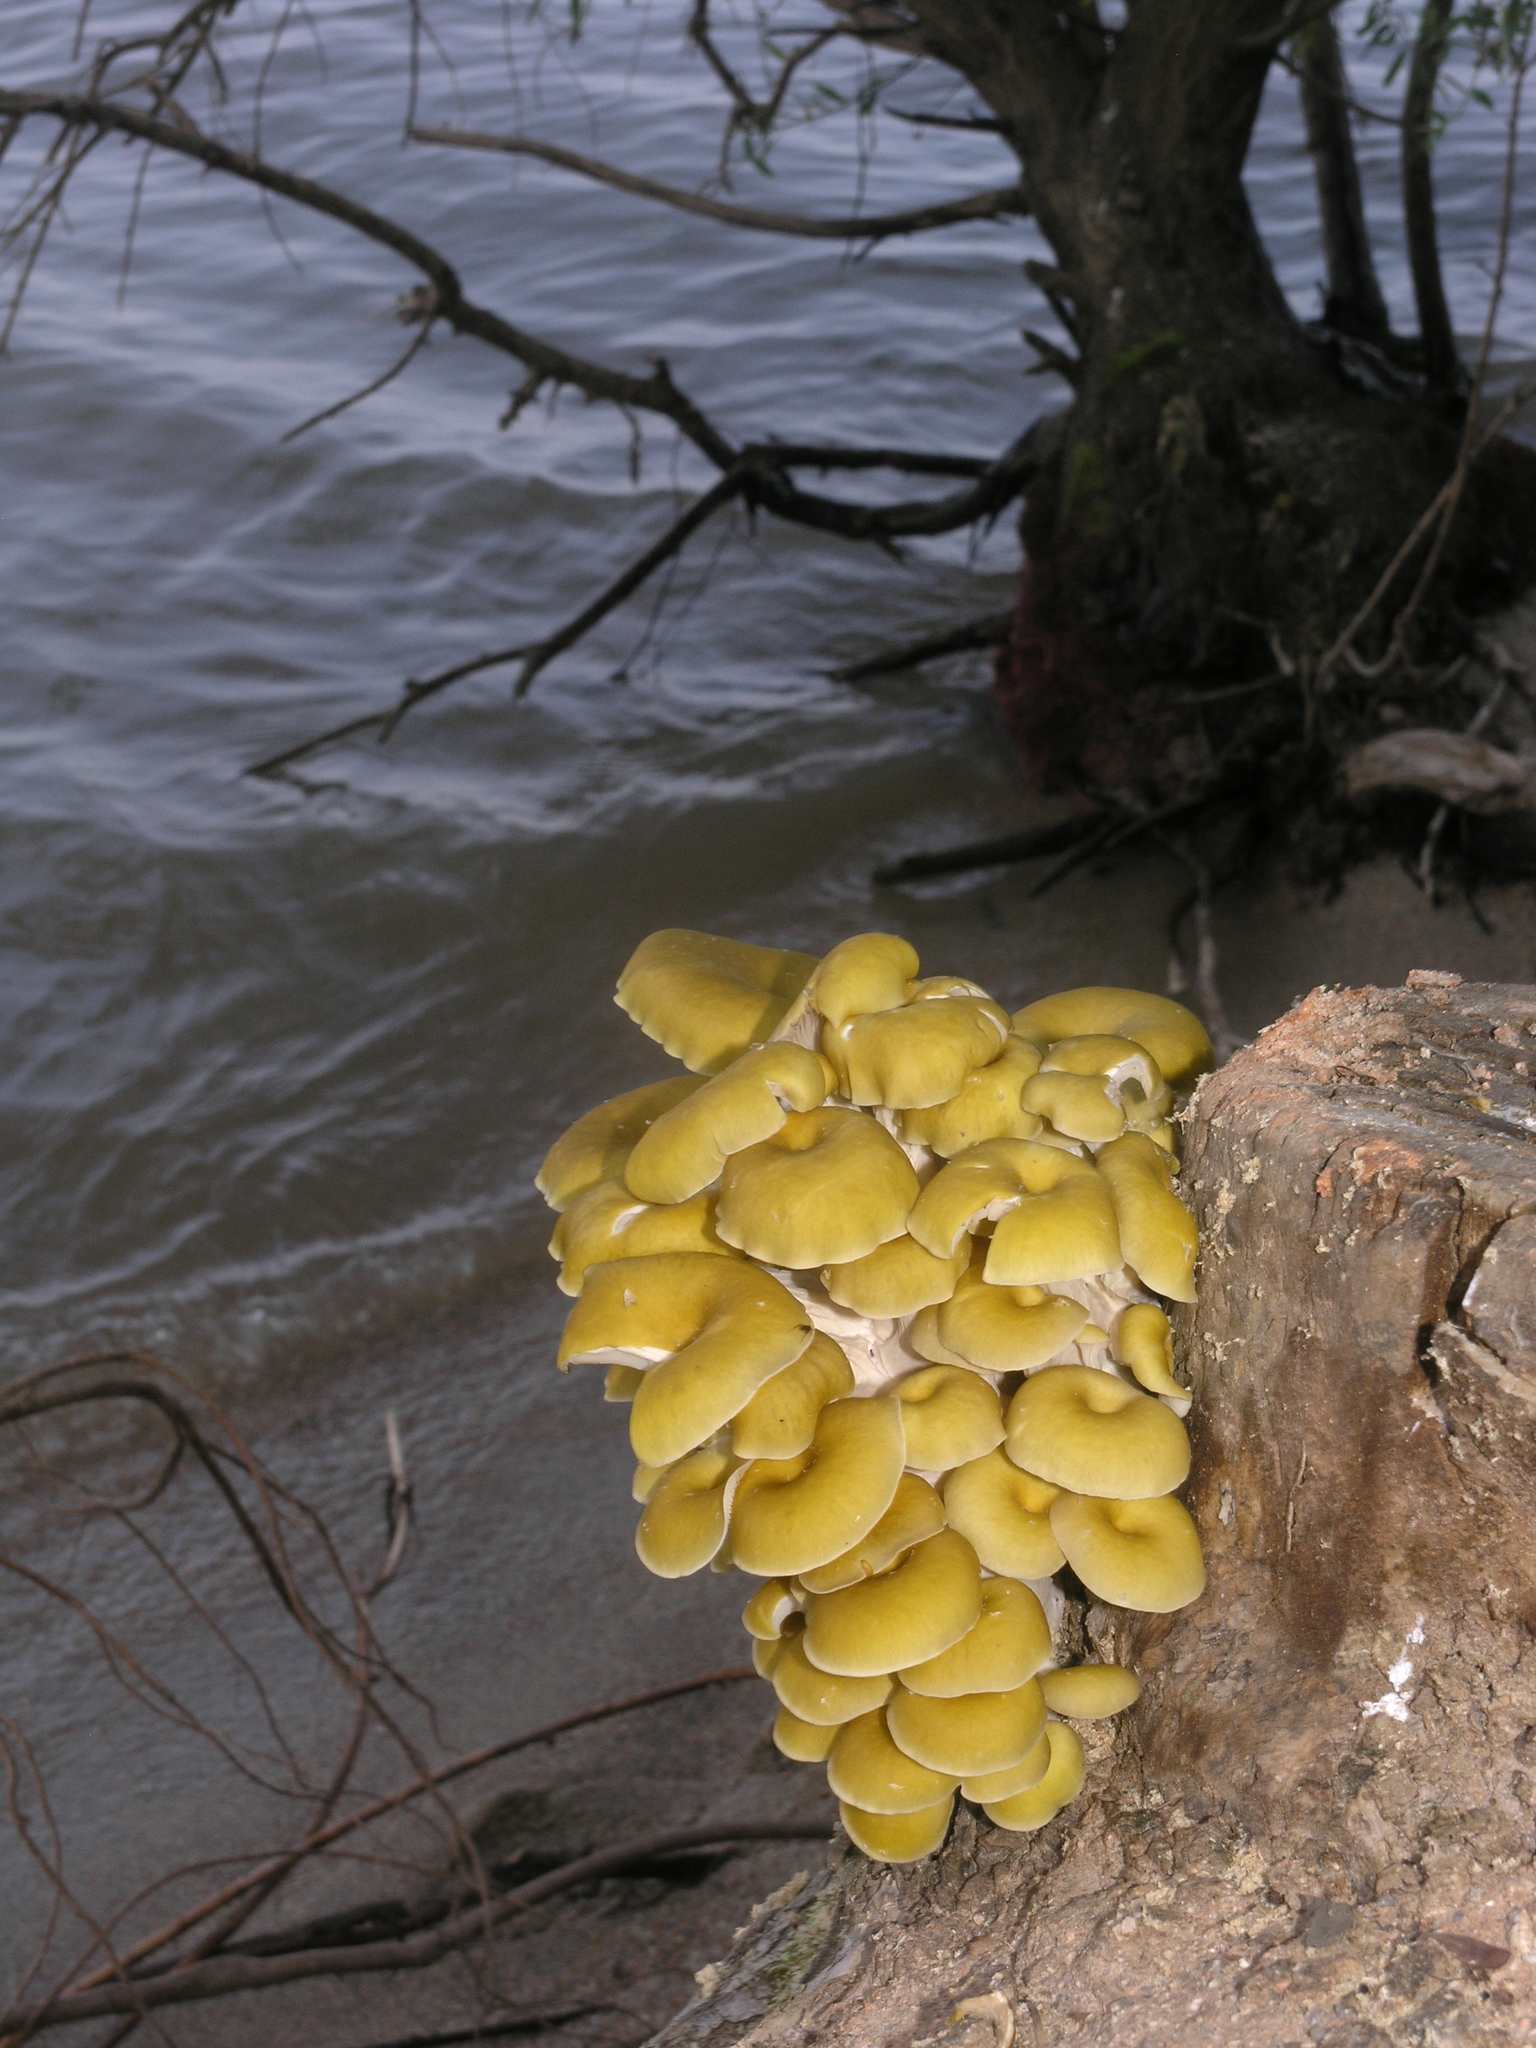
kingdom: Fungi
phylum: Basidiomycota
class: Agaricomycetes
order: Agaricales
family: Pleurotaceae
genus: Pleurotus
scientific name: Pleurotus citrinopileatus
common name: Golden oyster mushroom
